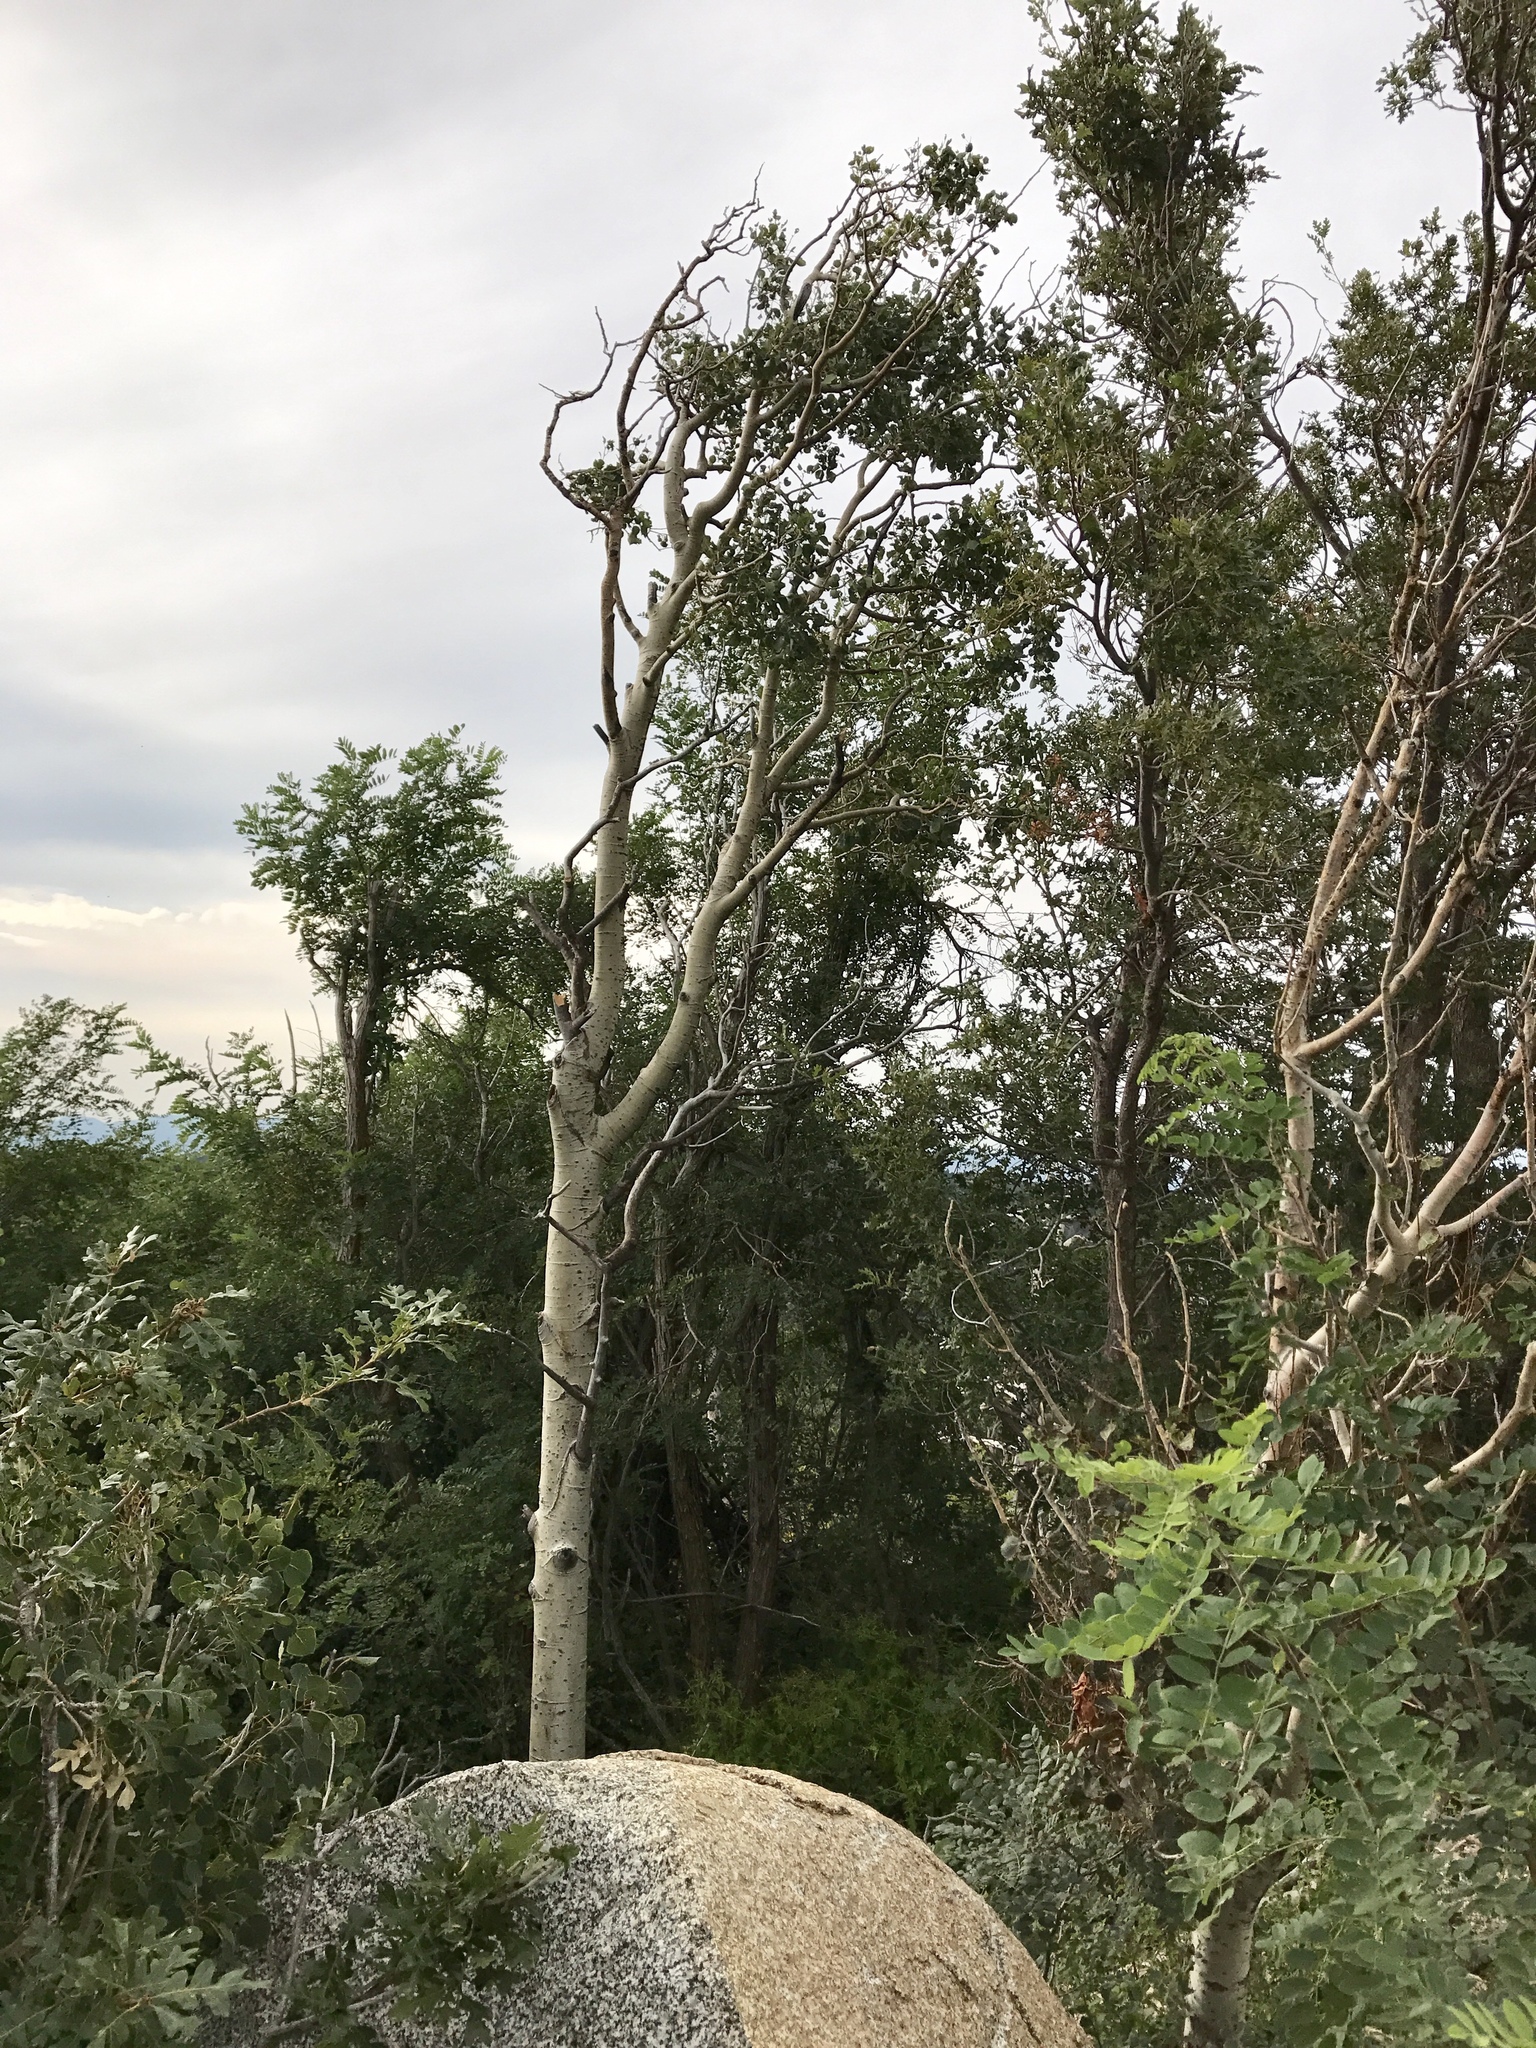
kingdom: Plantae
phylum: Tracheophyta
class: Magnoliopsida
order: Malpighiales
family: Salicaceae
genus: Populus
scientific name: Populus tremuloides
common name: Quaking aspen
